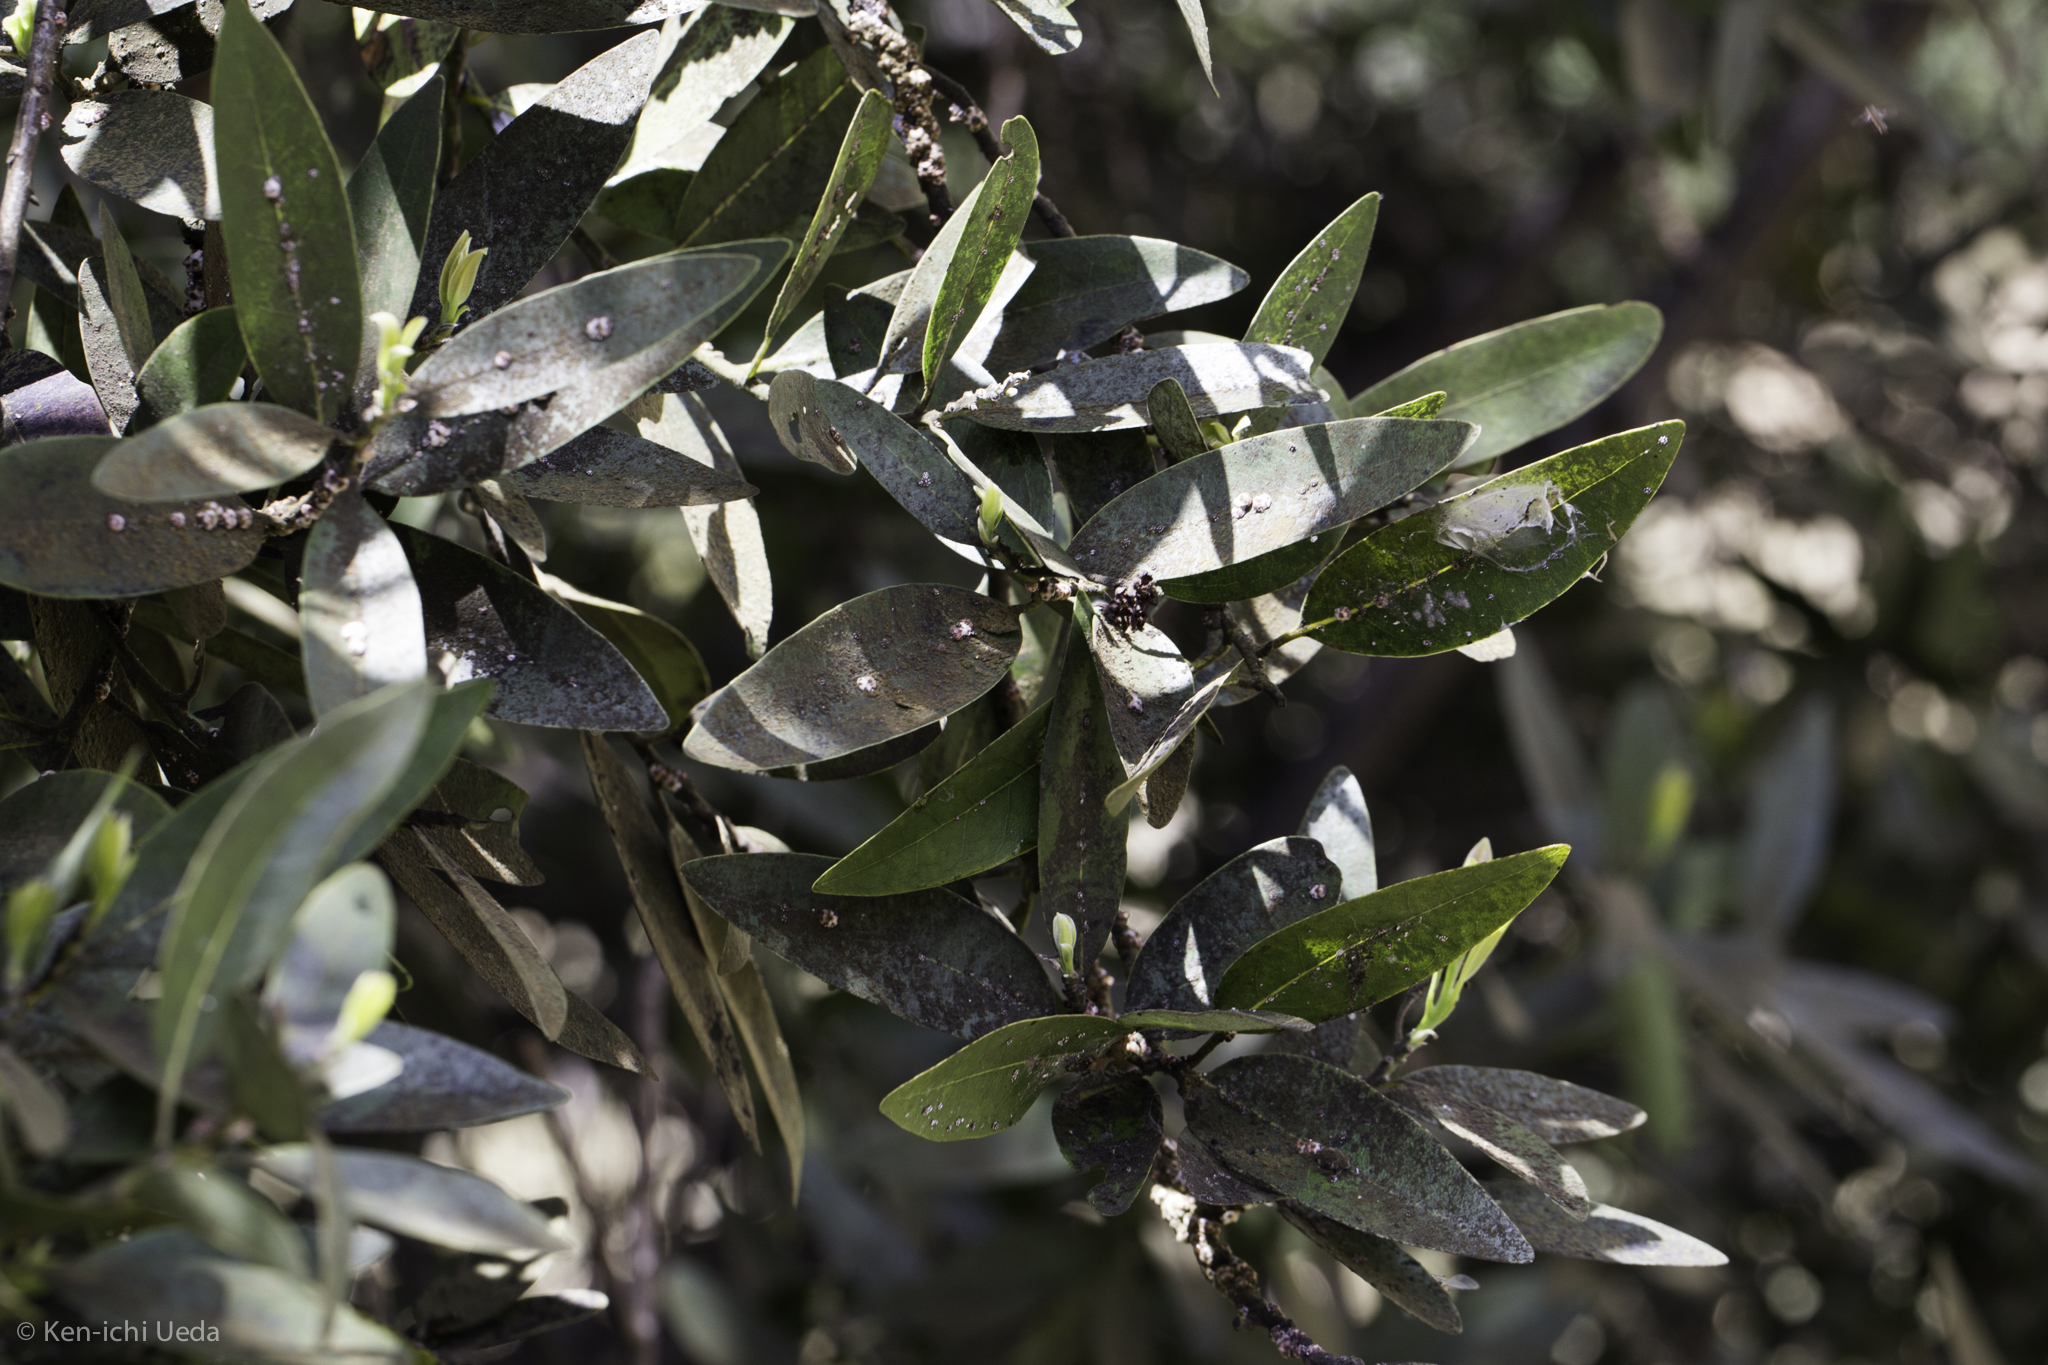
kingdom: Plantae
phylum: Tracheophyta
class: Magnoliopsida
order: Laurales
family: Lauraceae
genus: Umbellularia
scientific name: Umbellularia californica
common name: California bay
